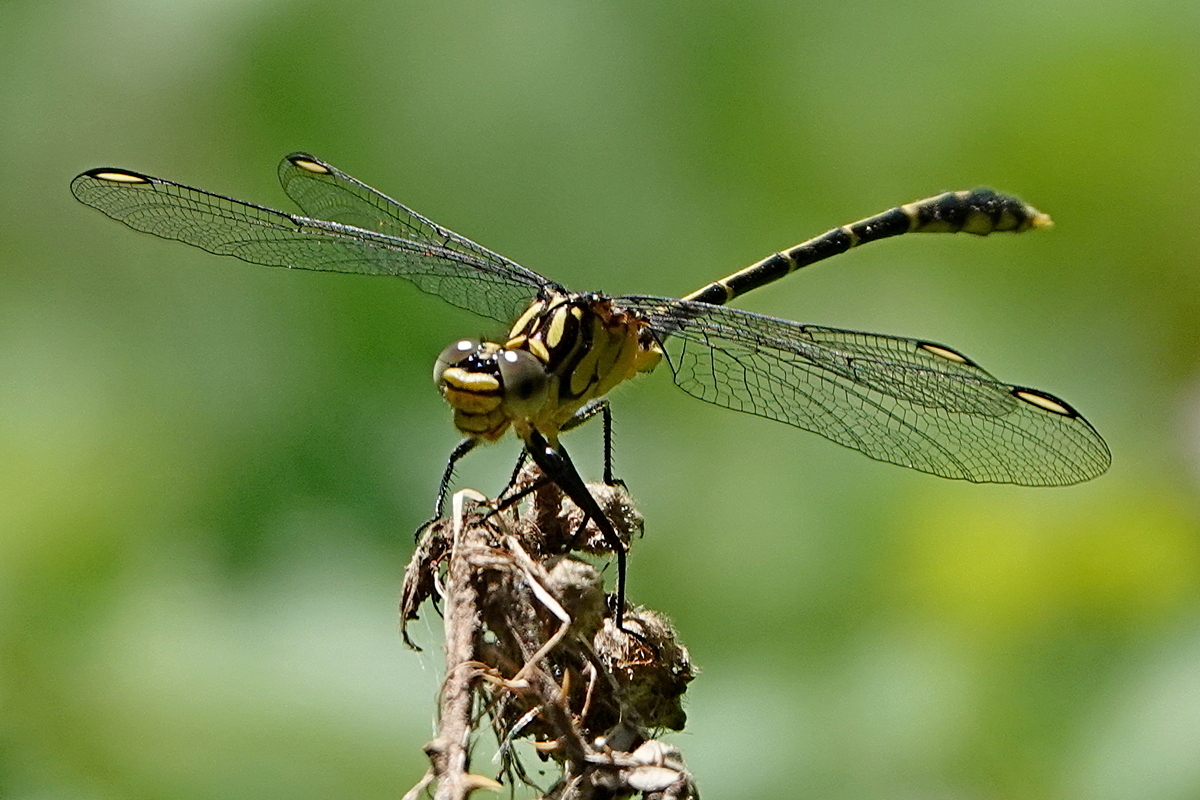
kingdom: Animalia
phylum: Arthropoda
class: Insecta
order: Odonata
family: Gomphidae
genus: Austrogomphus
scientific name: Austrogomphus ochraceus
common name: Jade hunter
